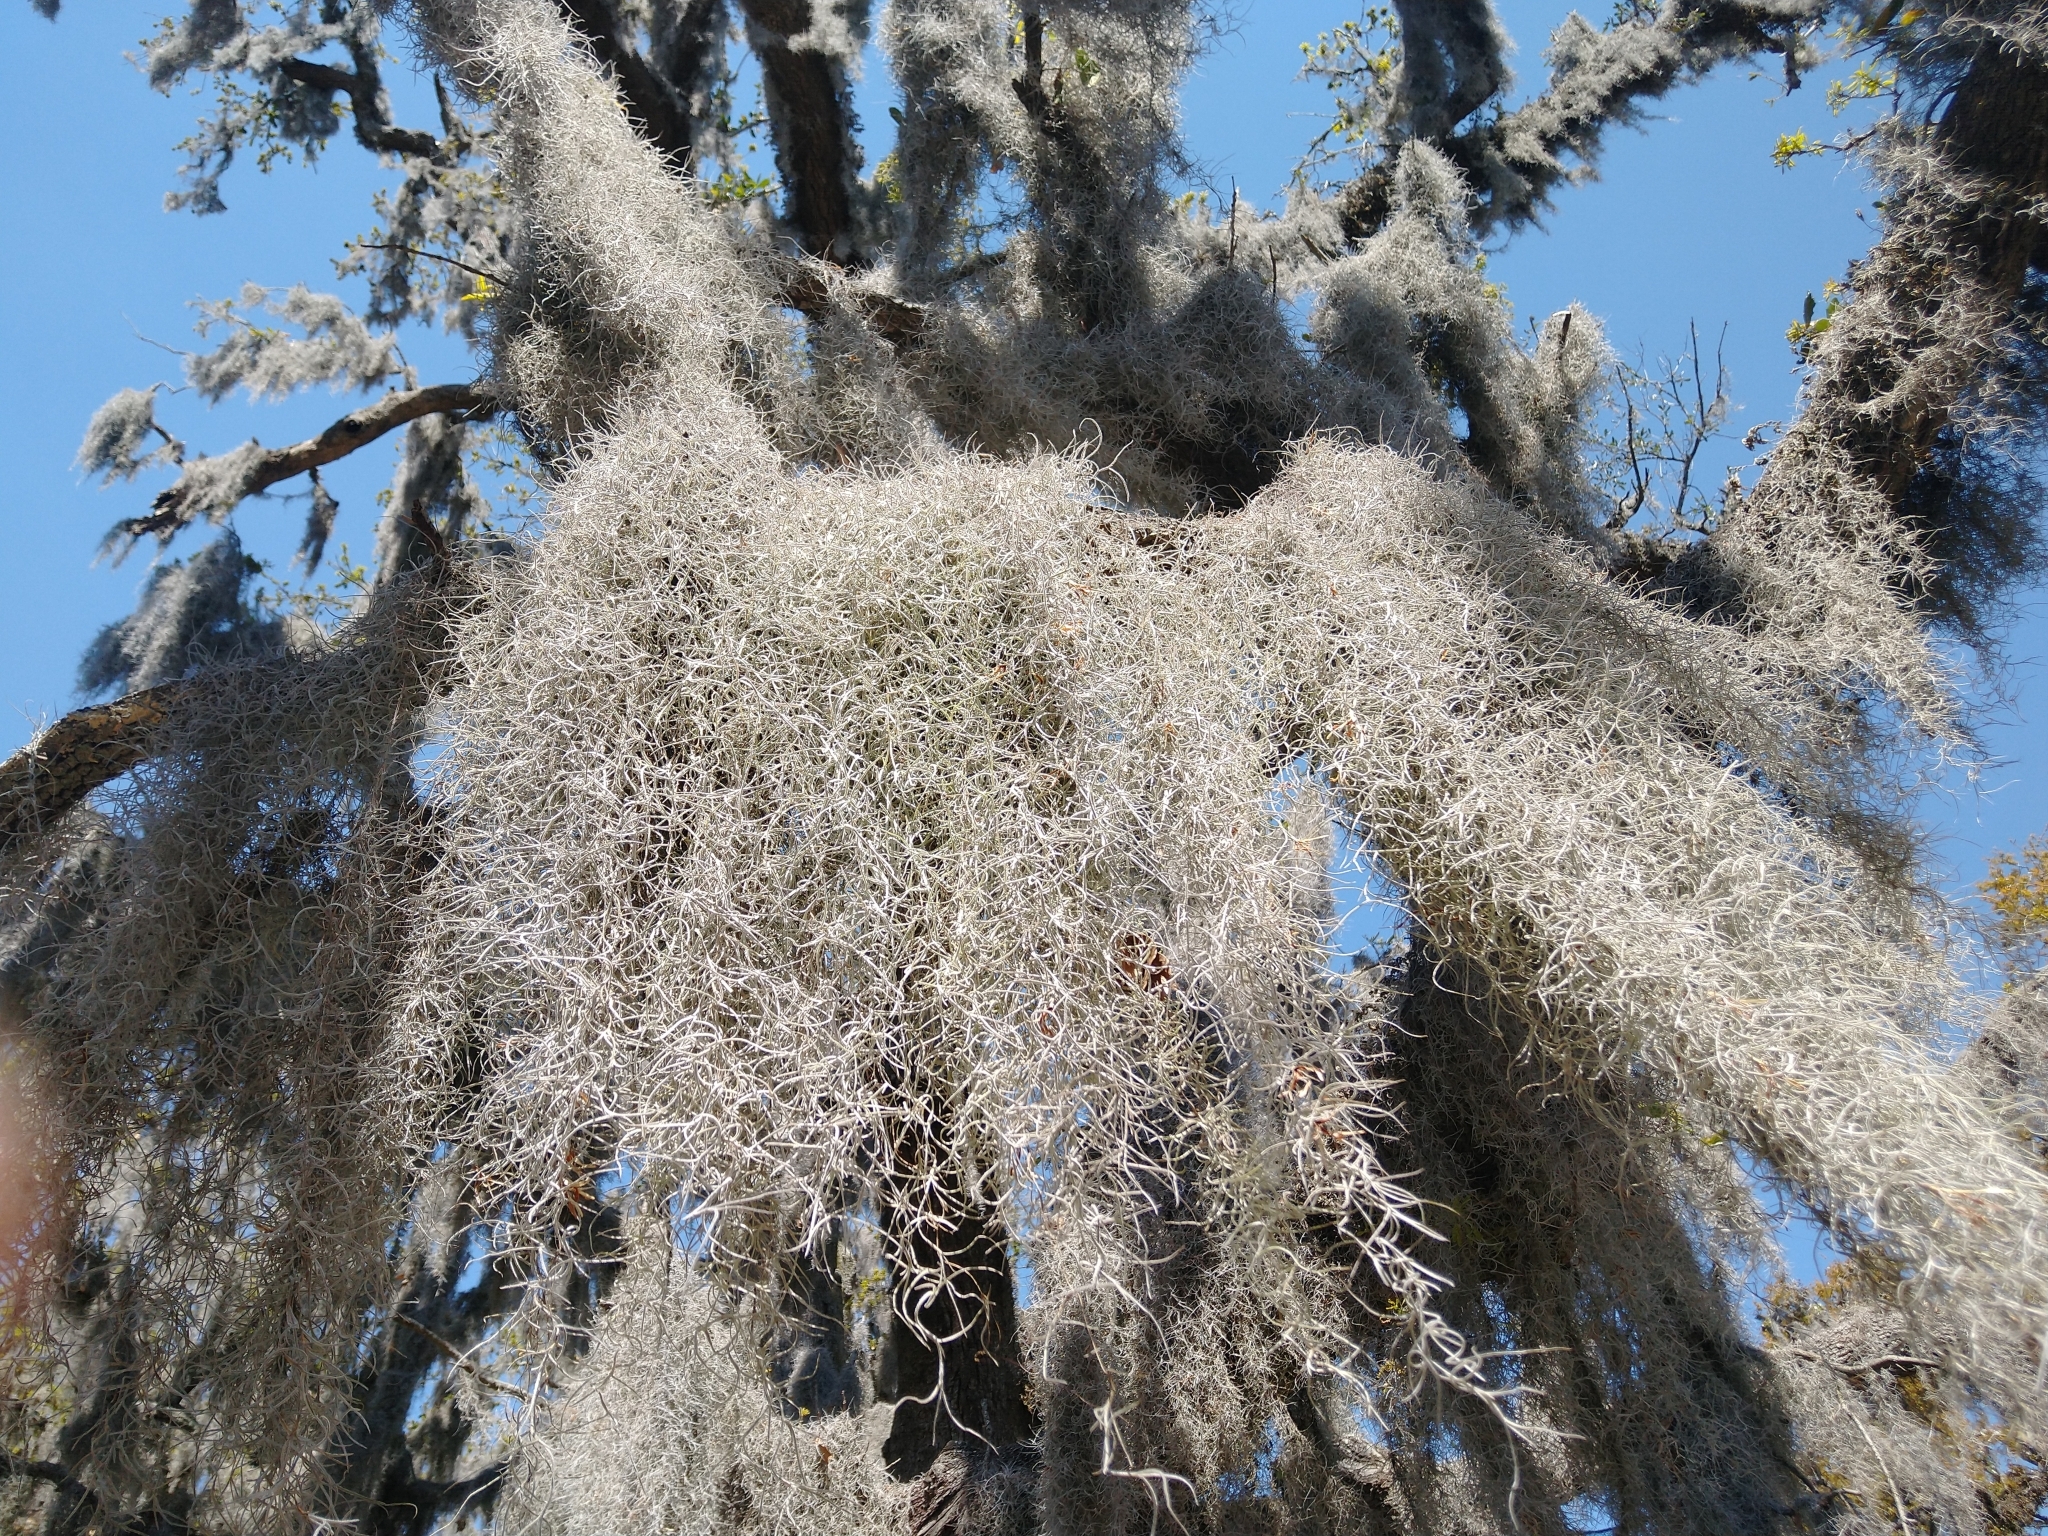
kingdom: Plantae
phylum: Tracheophyta
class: Liliopsida
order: Poales
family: Bromeliaceae
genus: Tillandsia
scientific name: Tillandsia usneoides
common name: Spanish moss
